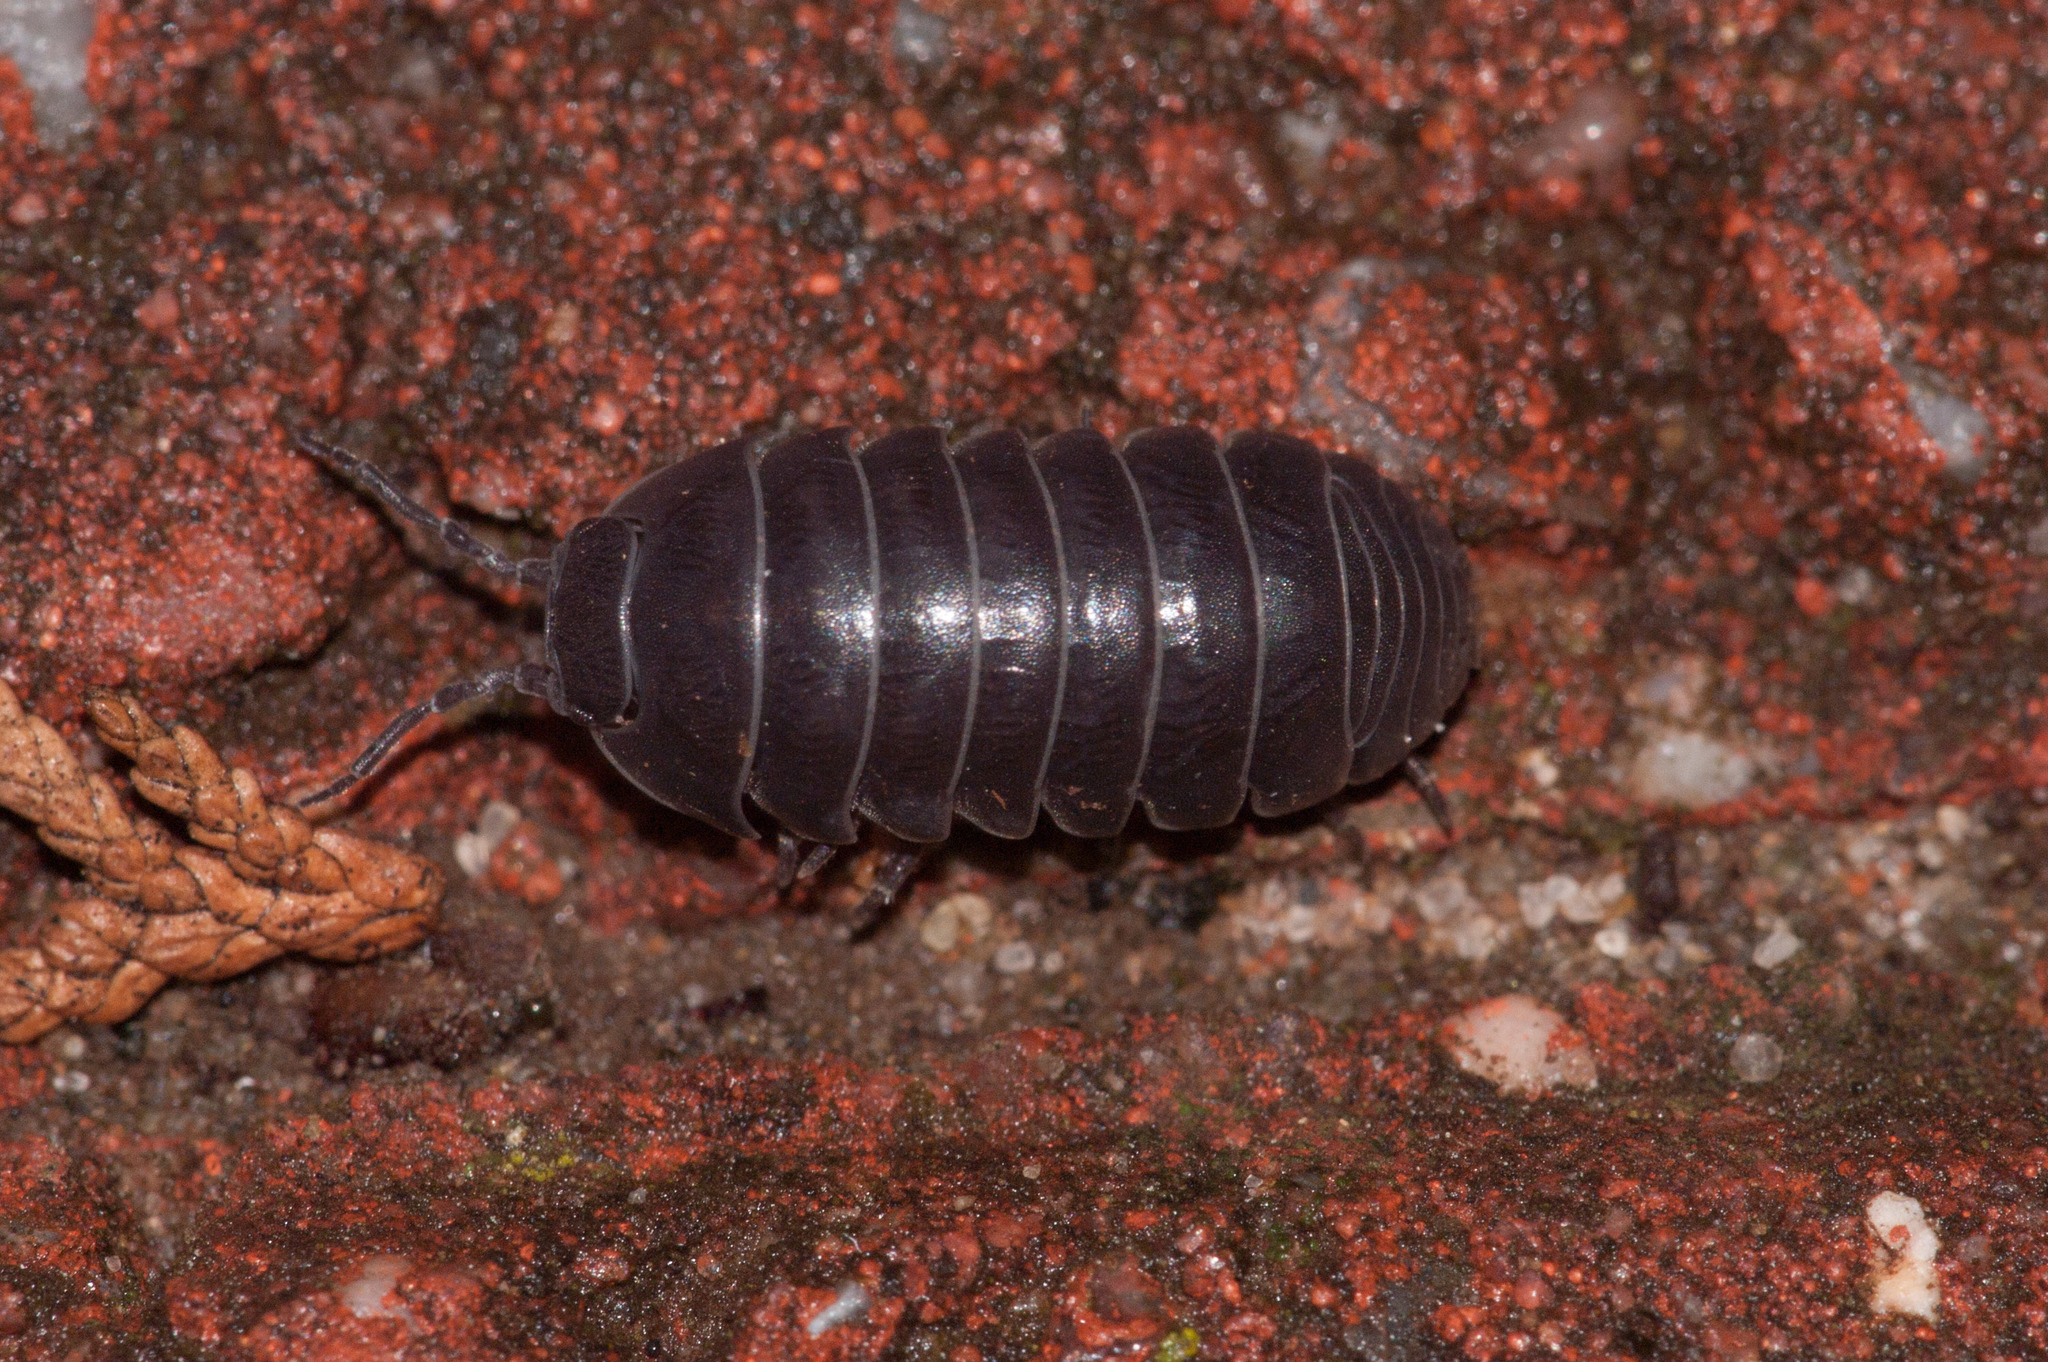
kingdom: Animalia
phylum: Arthropoda
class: Malacostraca
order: Isopoda
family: Armadillidiidae
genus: Armadillidium
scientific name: Armadillidium vulgare
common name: Common pill woodlouse
